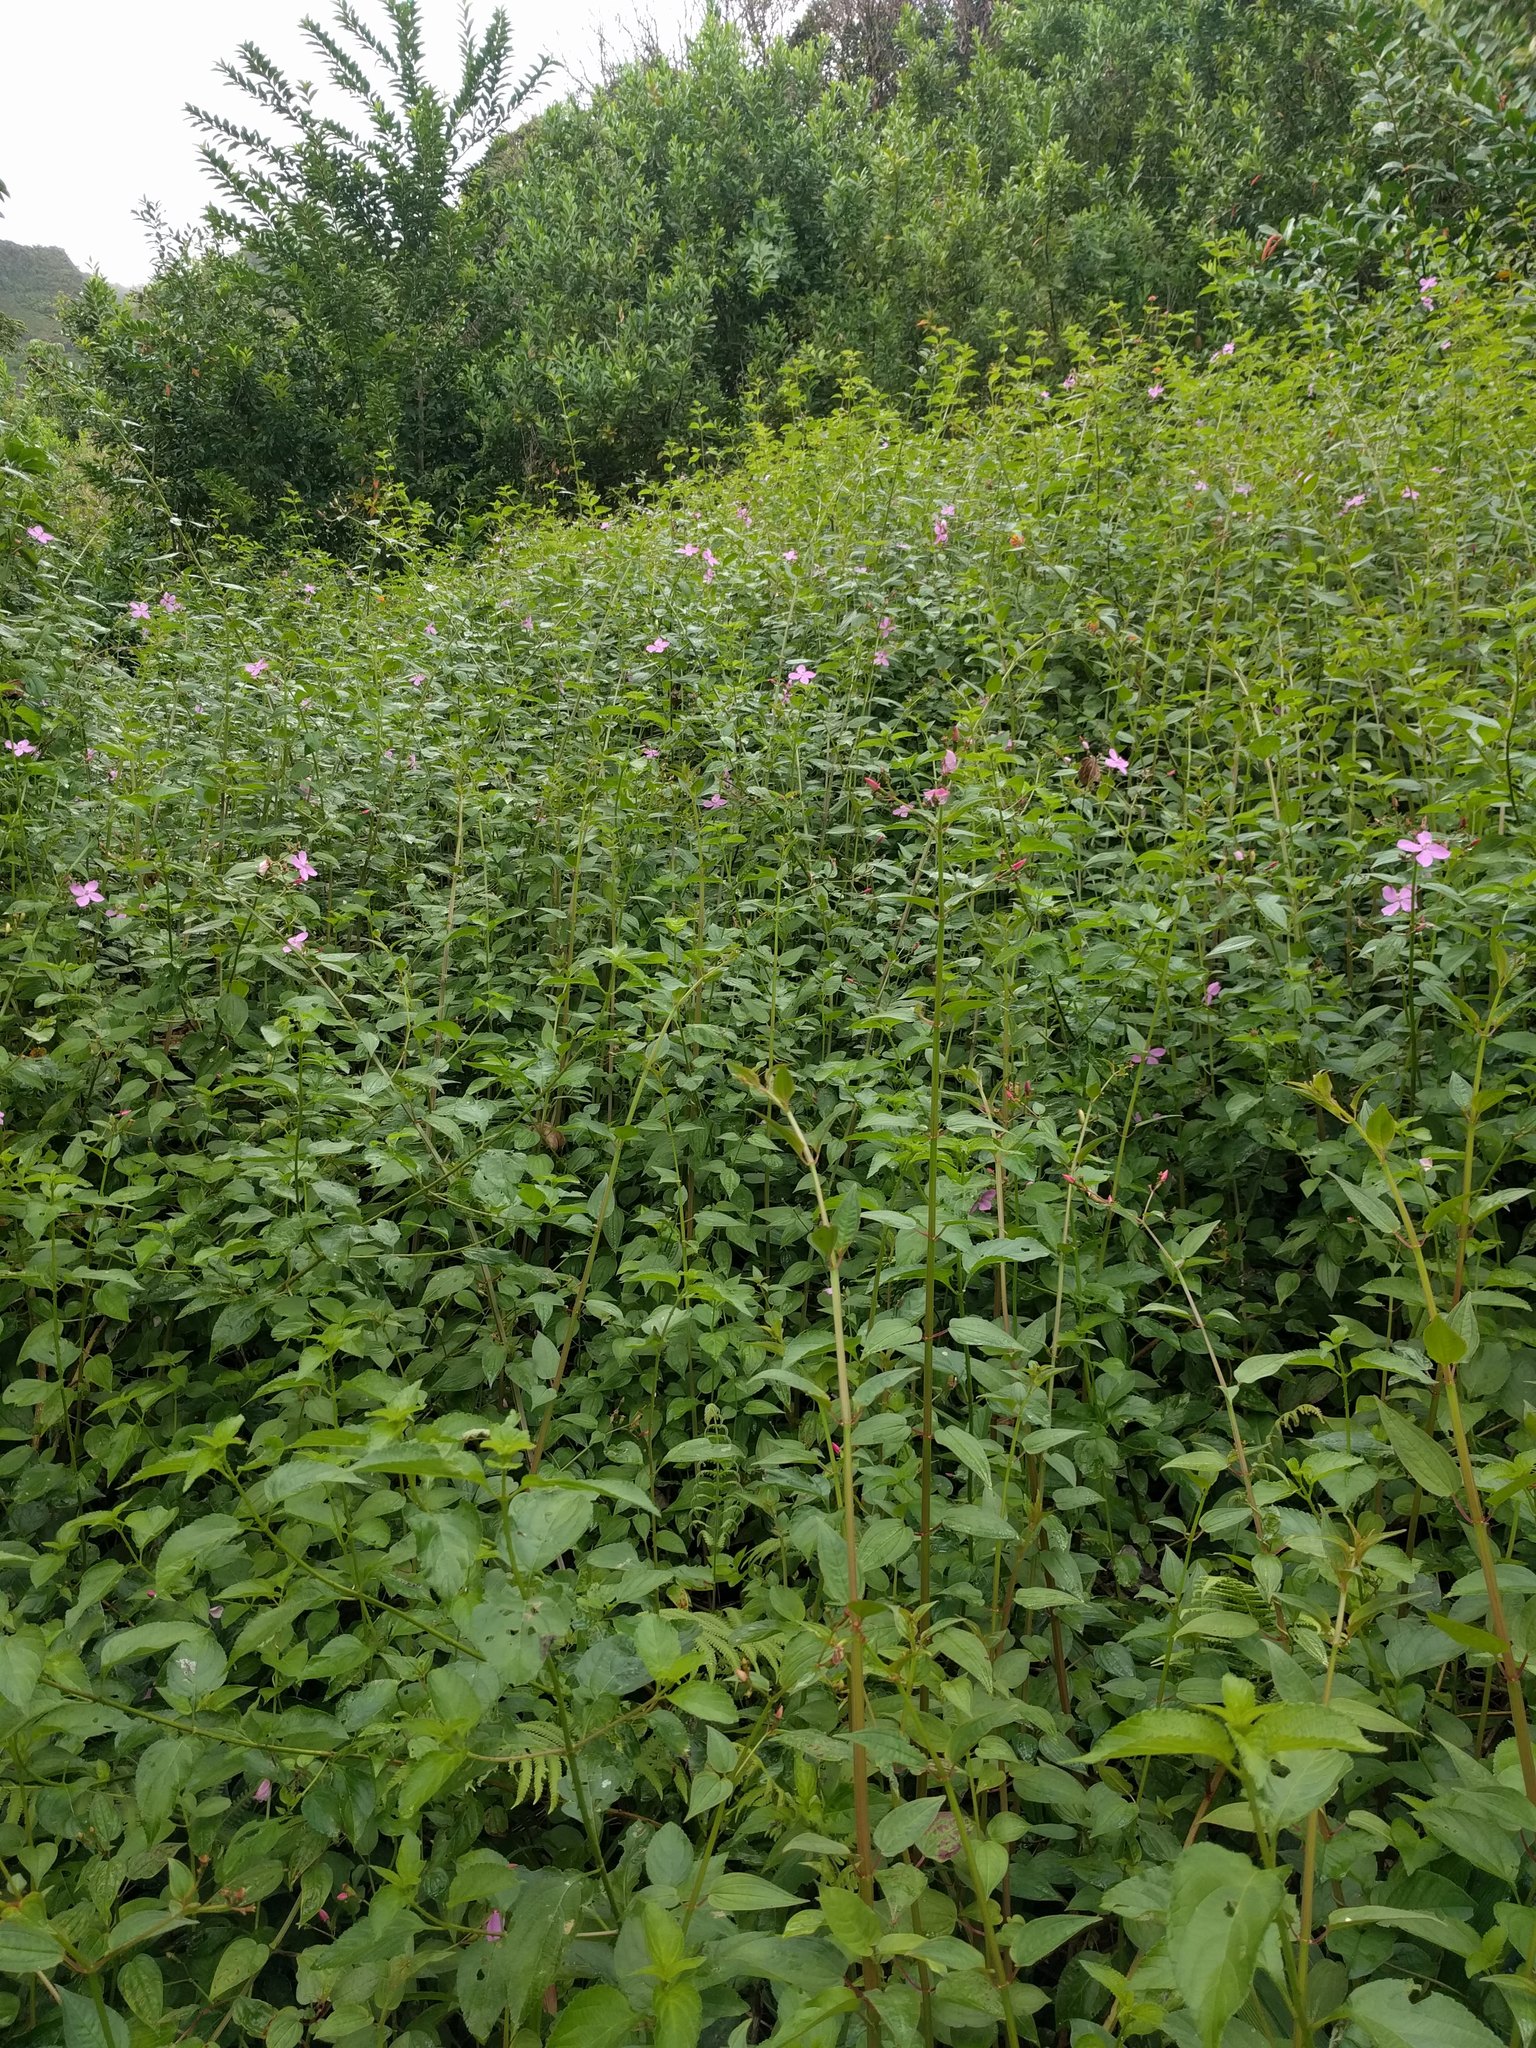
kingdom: Plantae
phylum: Tracheophyta
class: Magnoliopsida
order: Myrtales
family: Melastomataceae
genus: Arthrostemma
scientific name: Arthrostemma ciliatum
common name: Everblooming eavender
